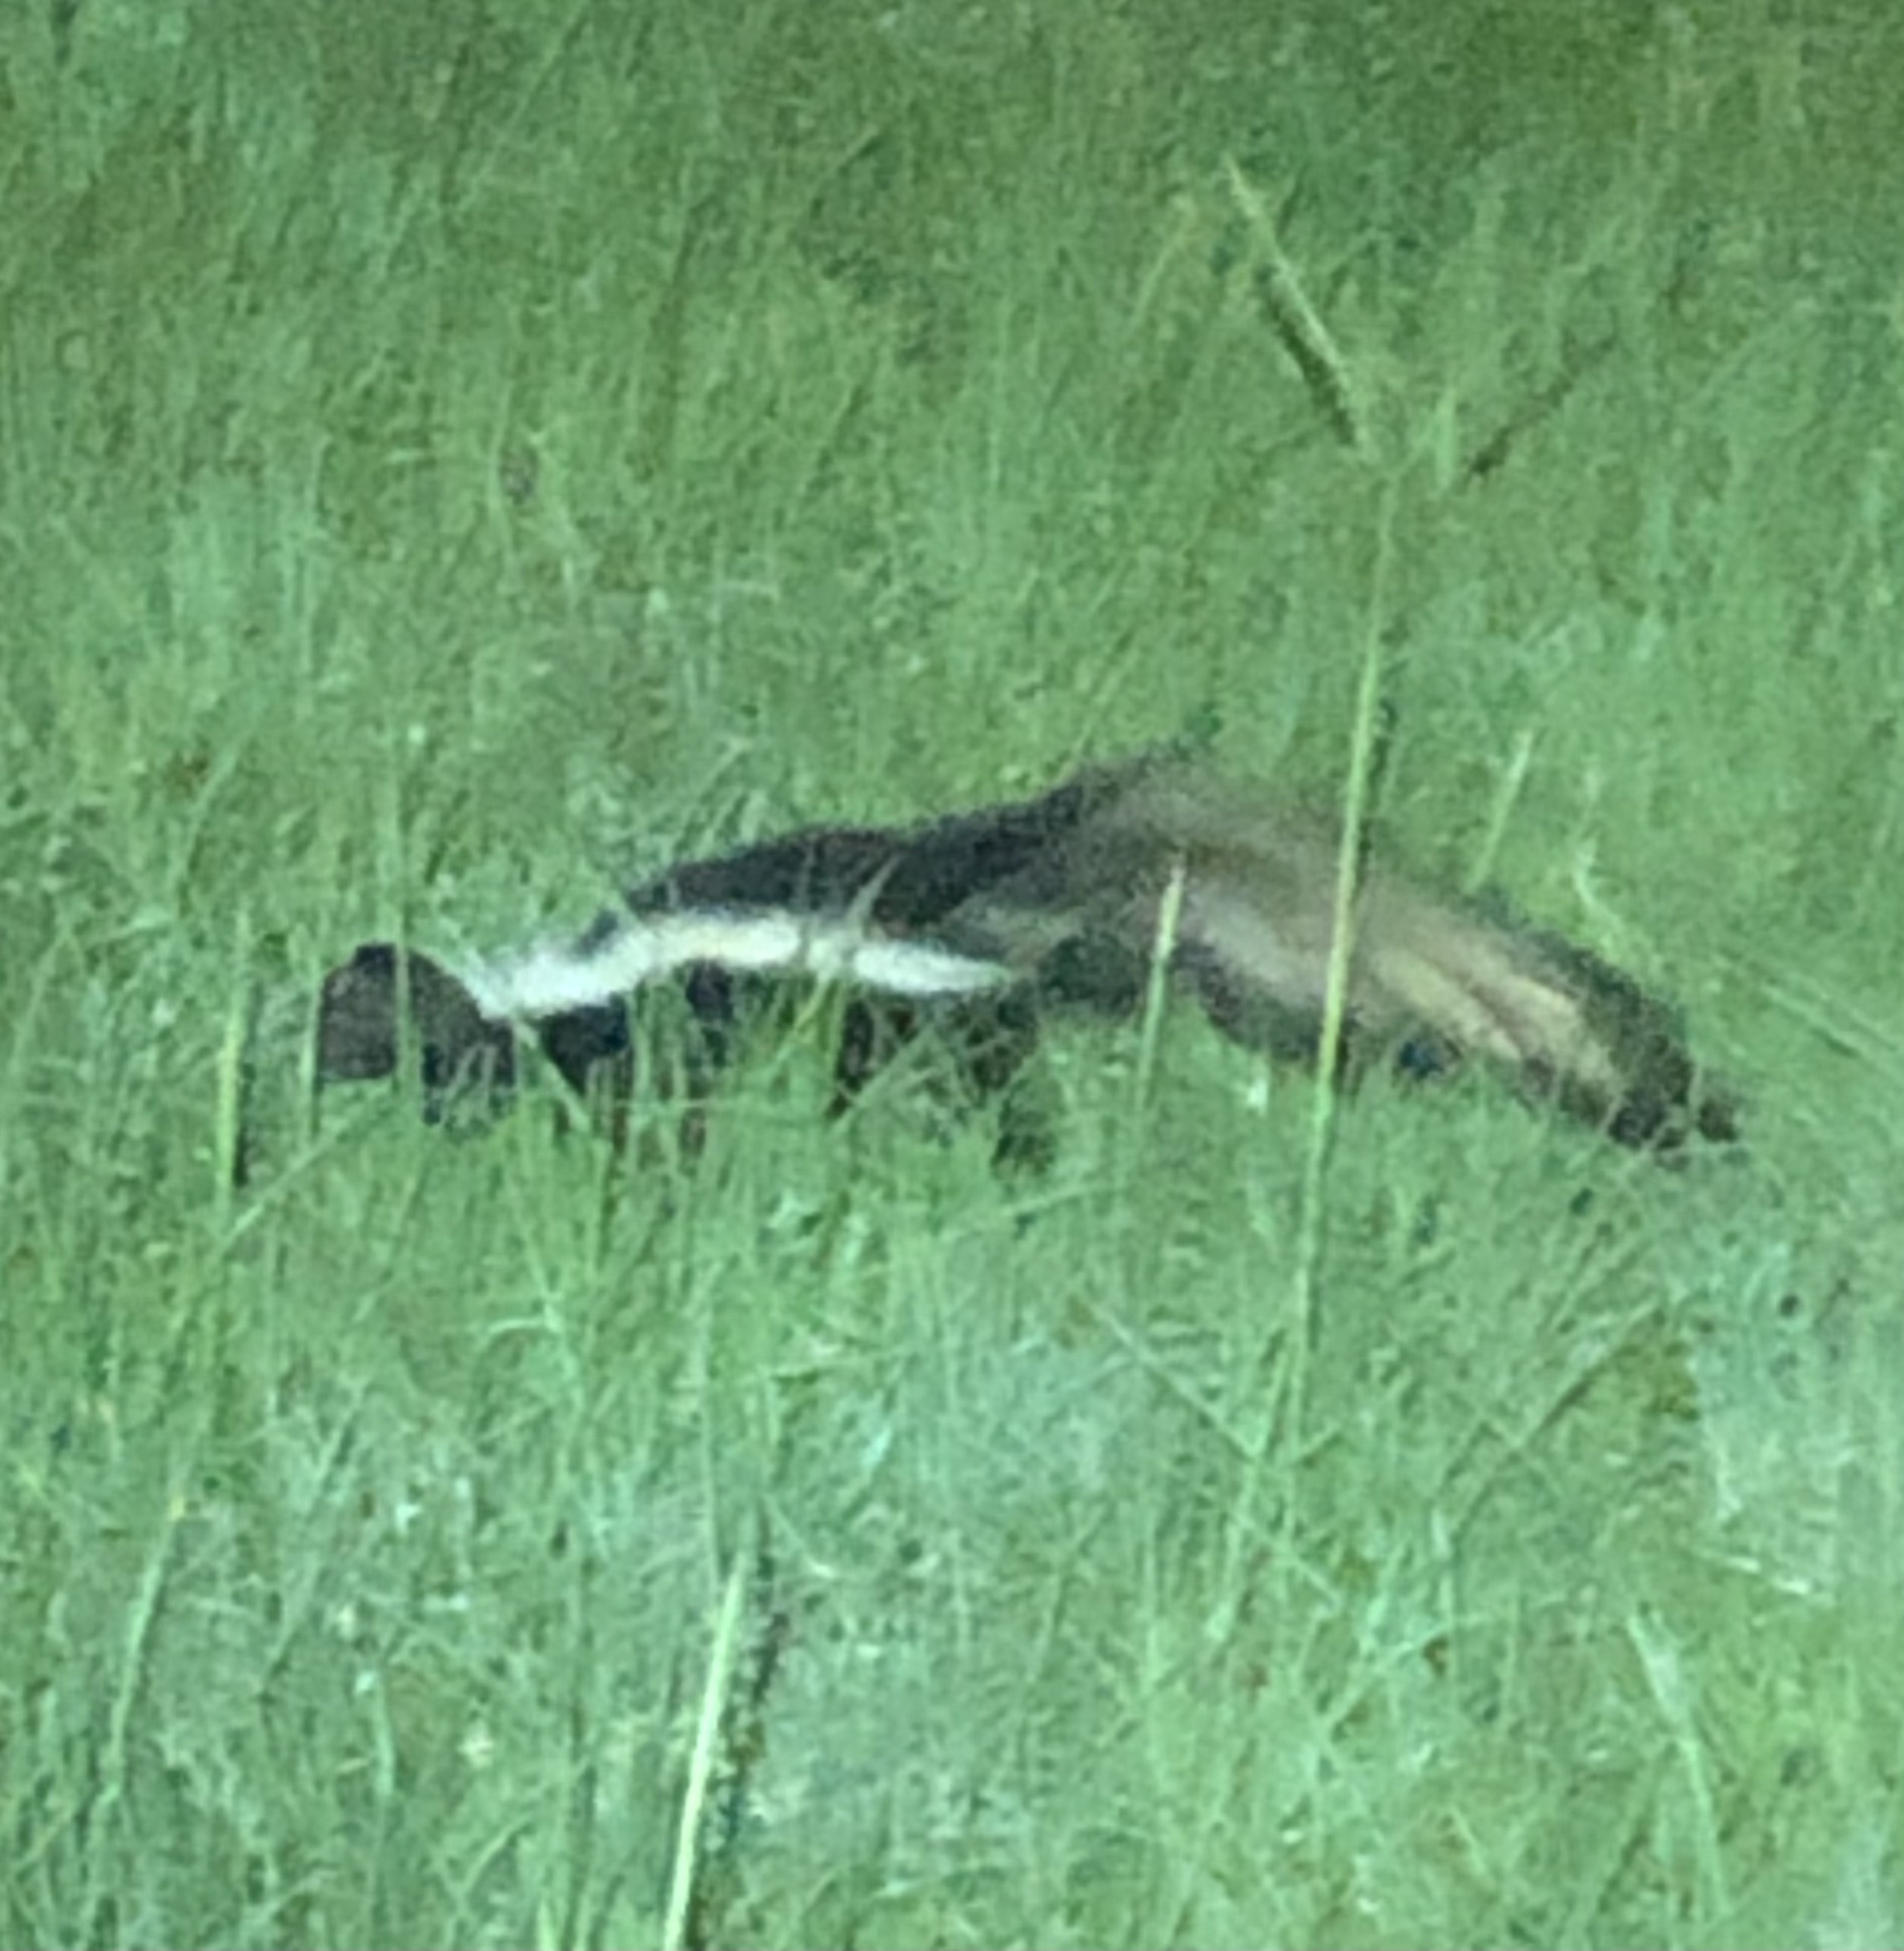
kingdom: Animalia
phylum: Chordata
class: Mammalia
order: Carnivora
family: Mephitidae
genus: Mephitis
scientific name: Mephitis mephitis
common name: Striped skunk
